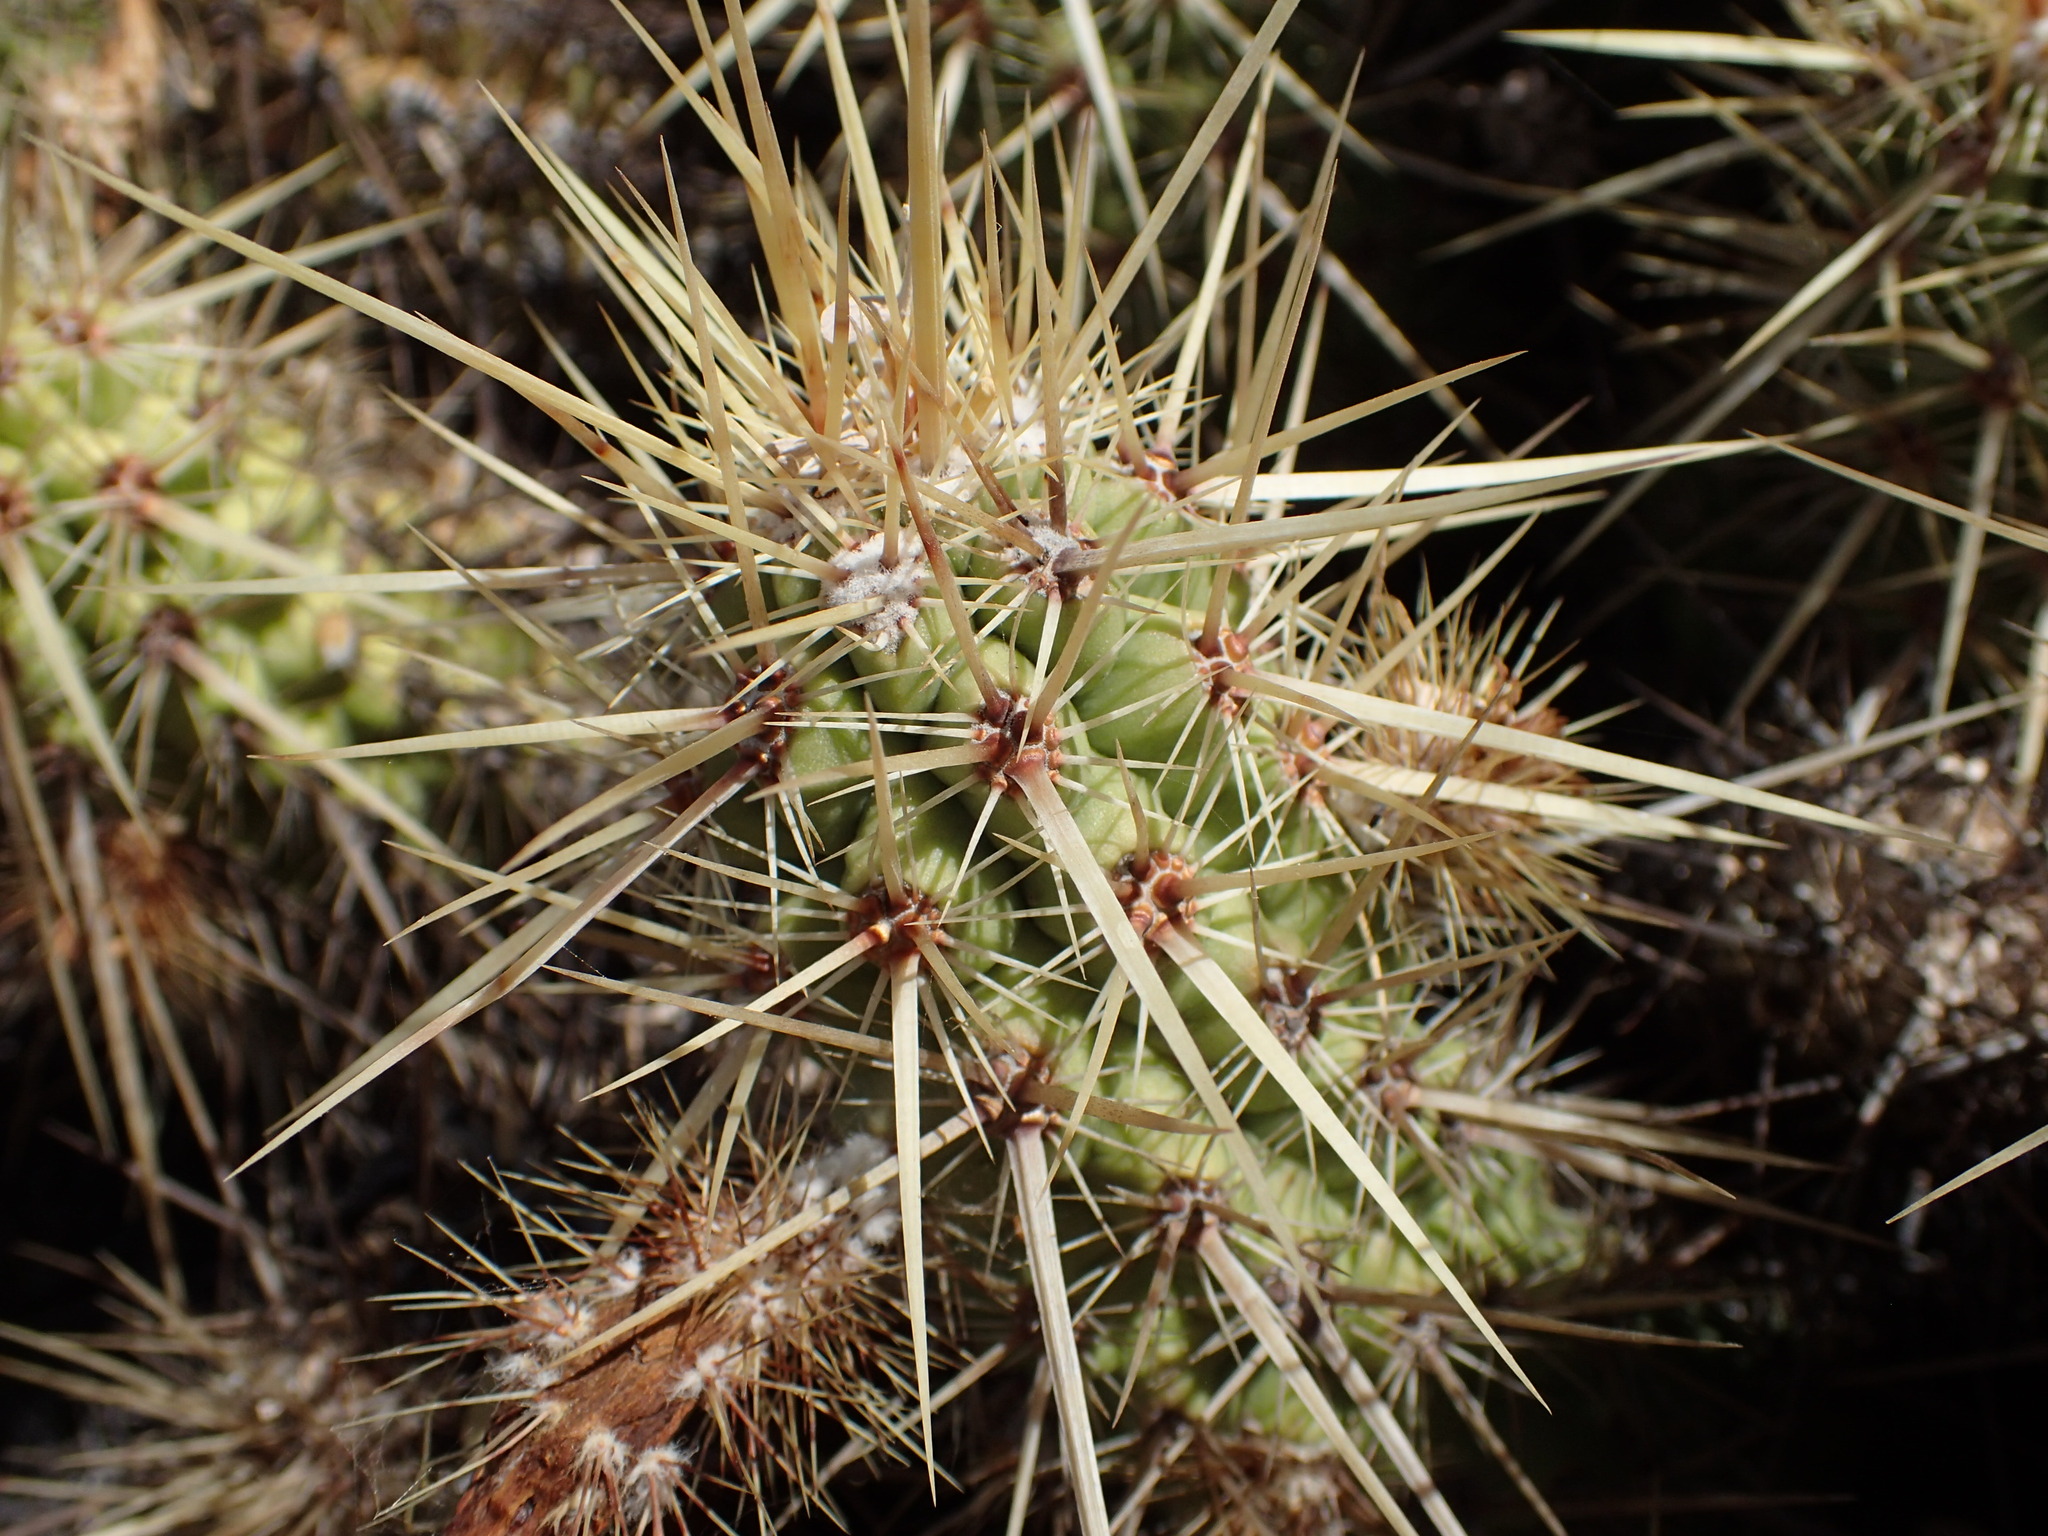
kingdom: Plantae
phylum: Tracheophyta
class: Magnoliopsida
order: Caryophyllales
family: Cactaceae
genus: Echinocereus
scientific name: Echinocereus brandegeei
